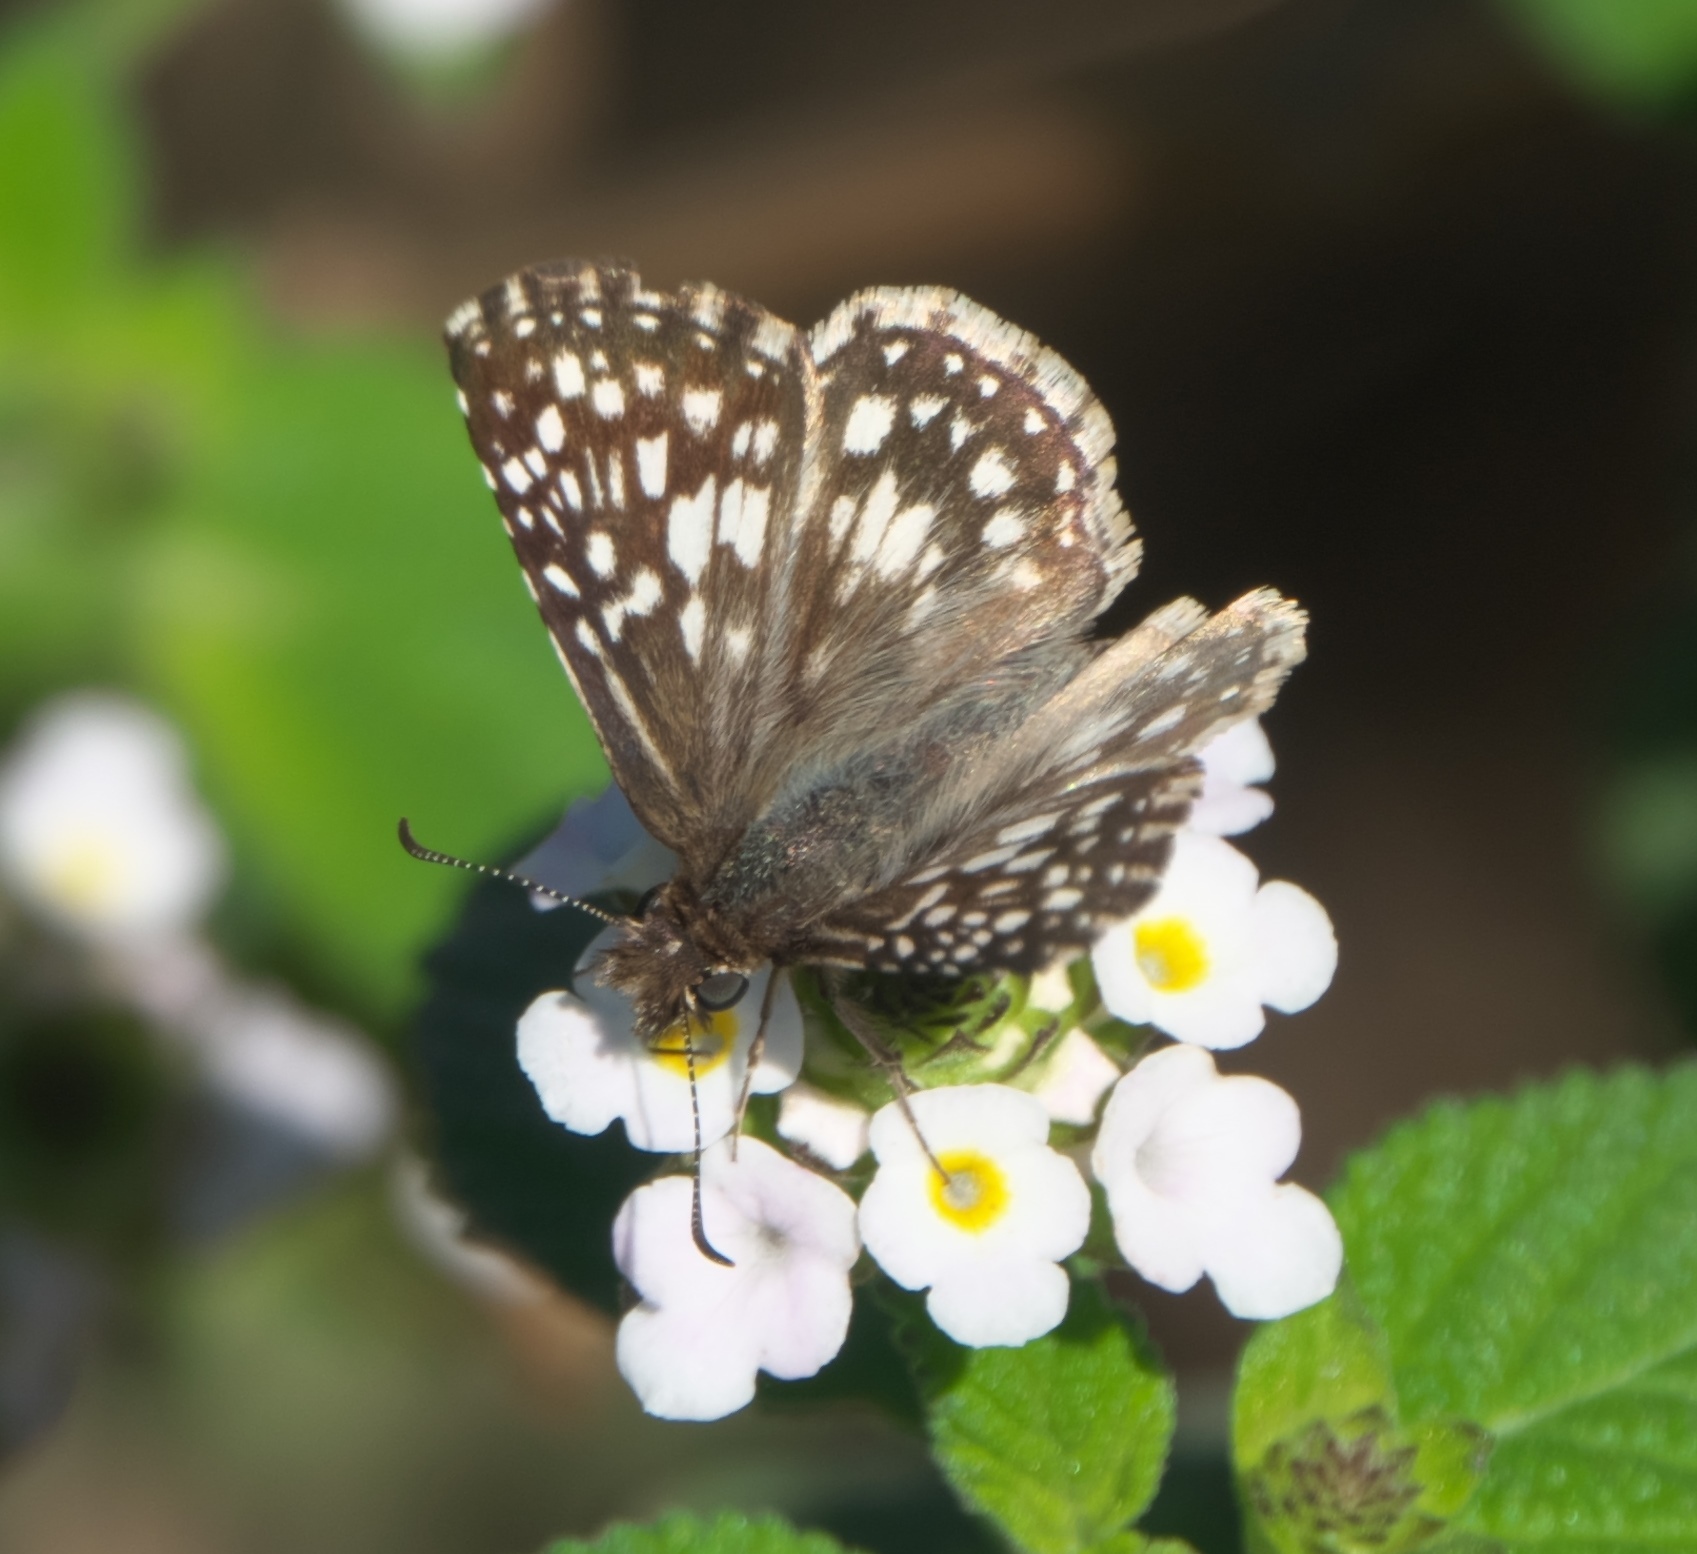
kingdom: Animalia
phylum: Arthropoda
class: Insecta
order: Lepidoptera
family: Hesperiidae
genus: Pyrgus
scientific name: Pyrgus oileus
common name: Tropical checkered-skipper
